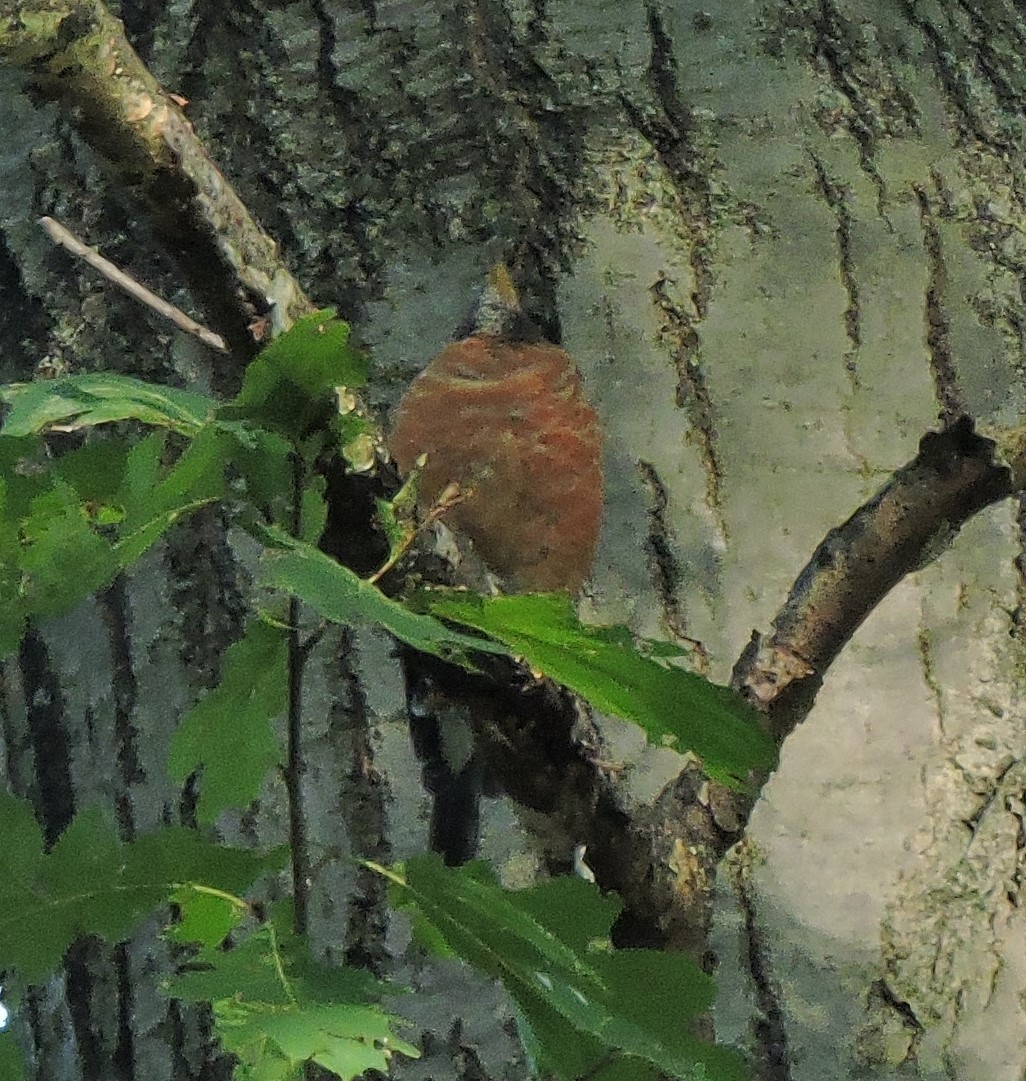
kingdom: Animalia
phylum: Chordata
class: Aves
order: Passeriformes
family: Turdidae
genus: Turdus
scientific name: Turdus migratorius
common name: American robin
